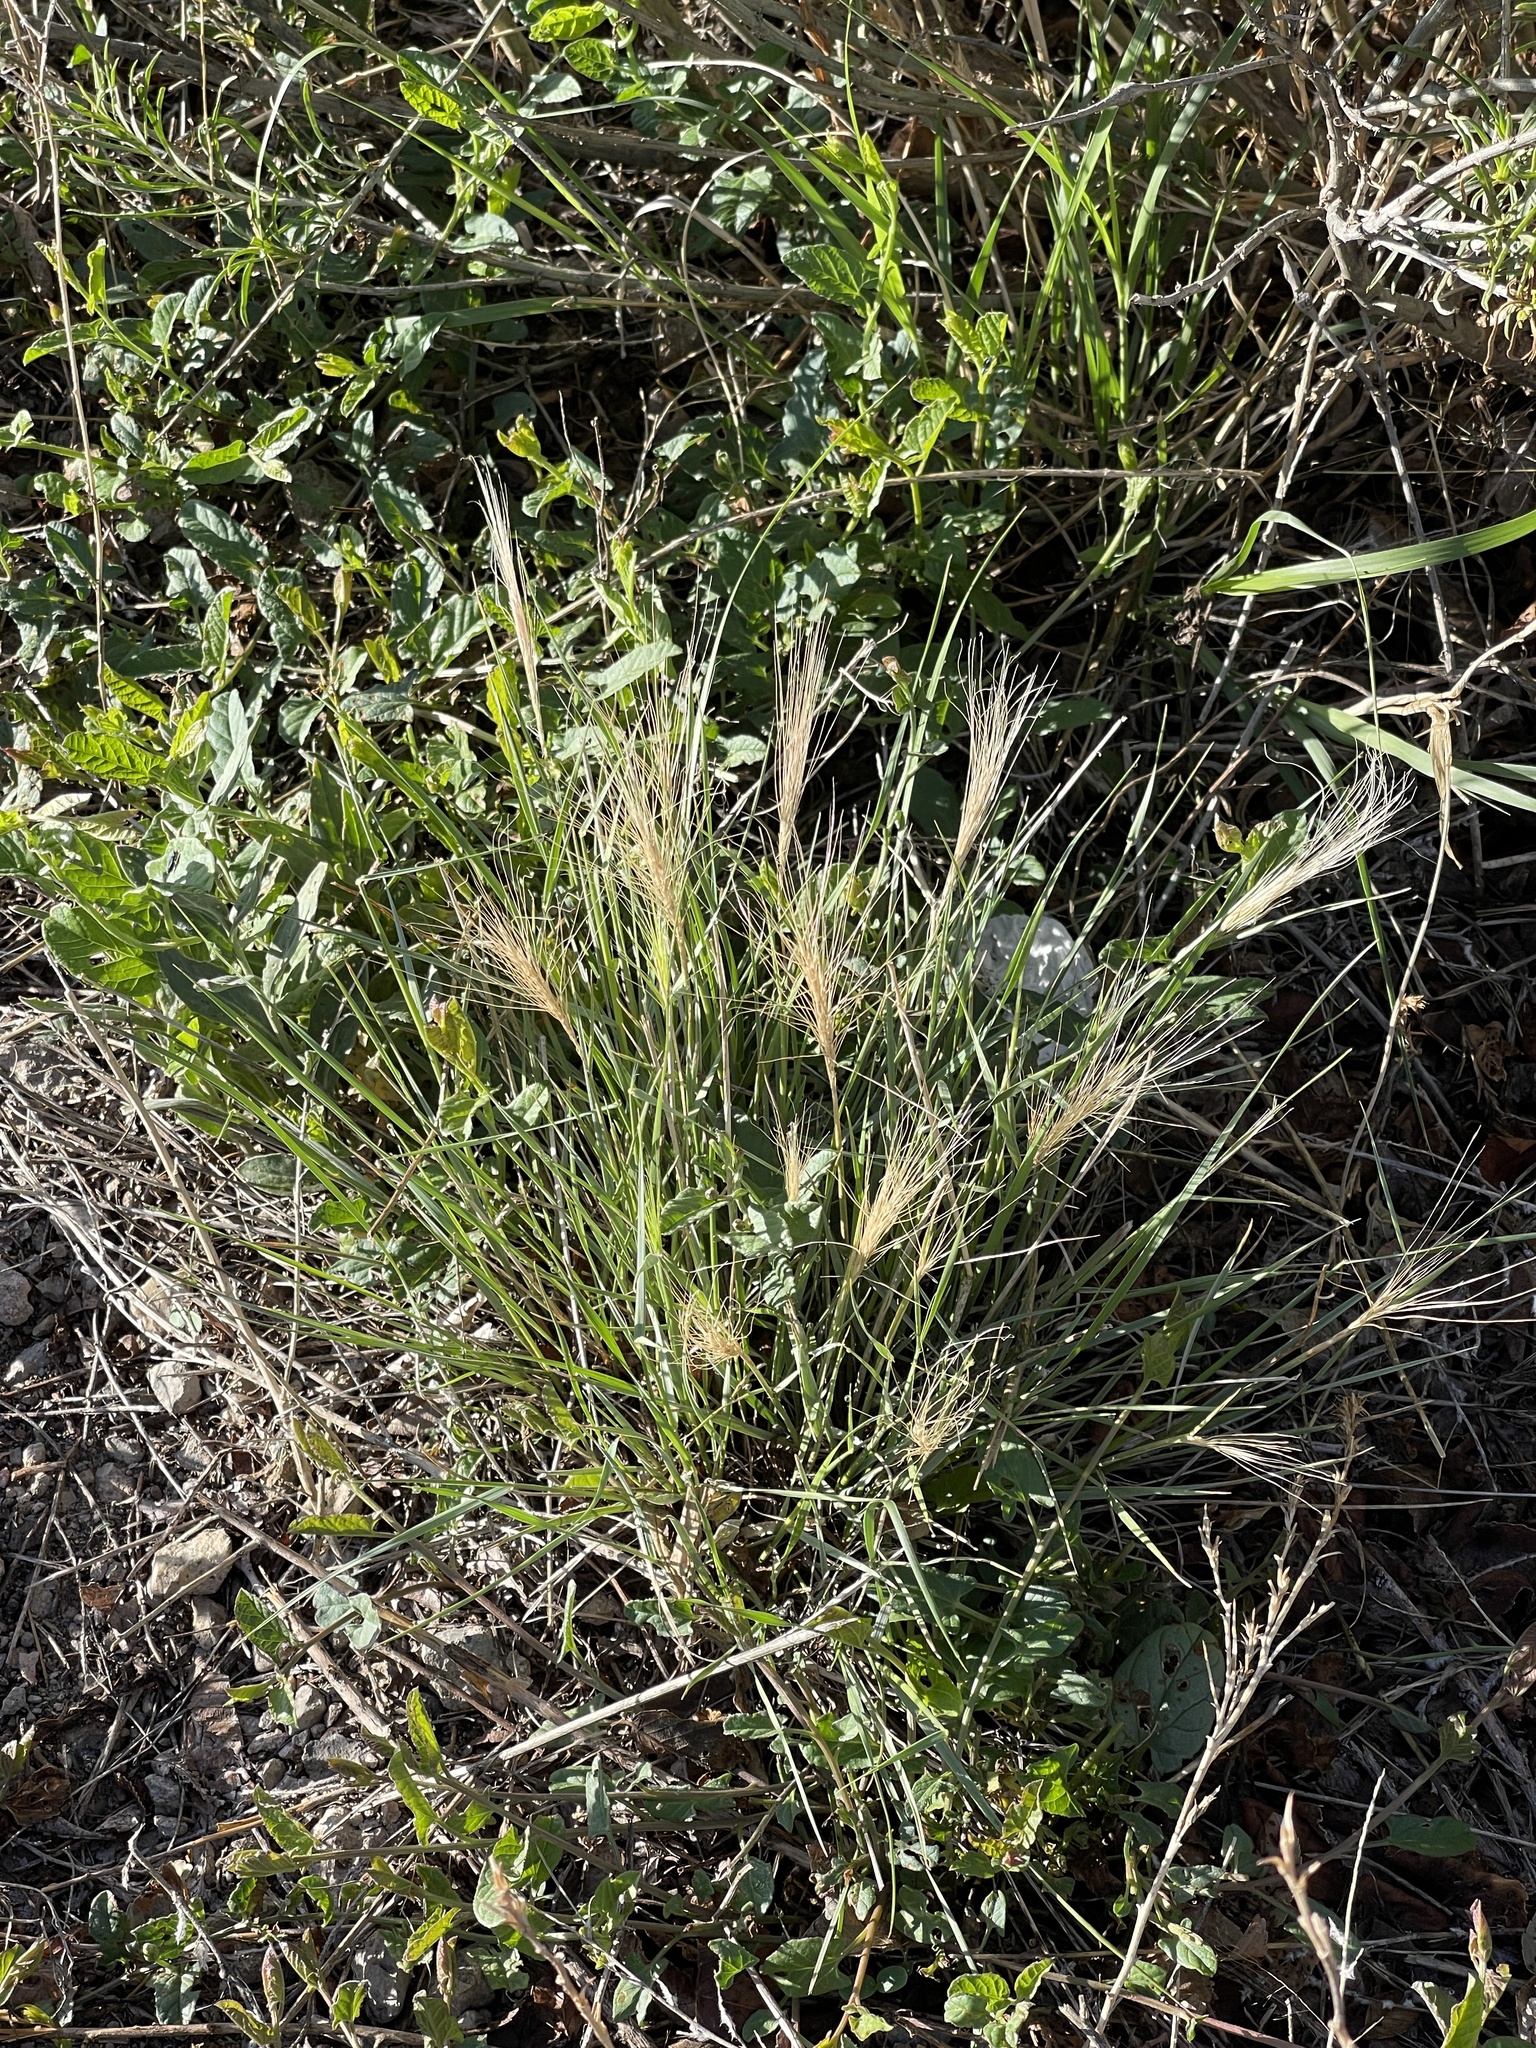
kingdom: Plantae
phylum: Tracheophyta
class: Liliopsida
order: Poales
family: Poaceae
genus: Chloris
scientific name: Chloris virgata
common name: Feathery rhodes-grass
